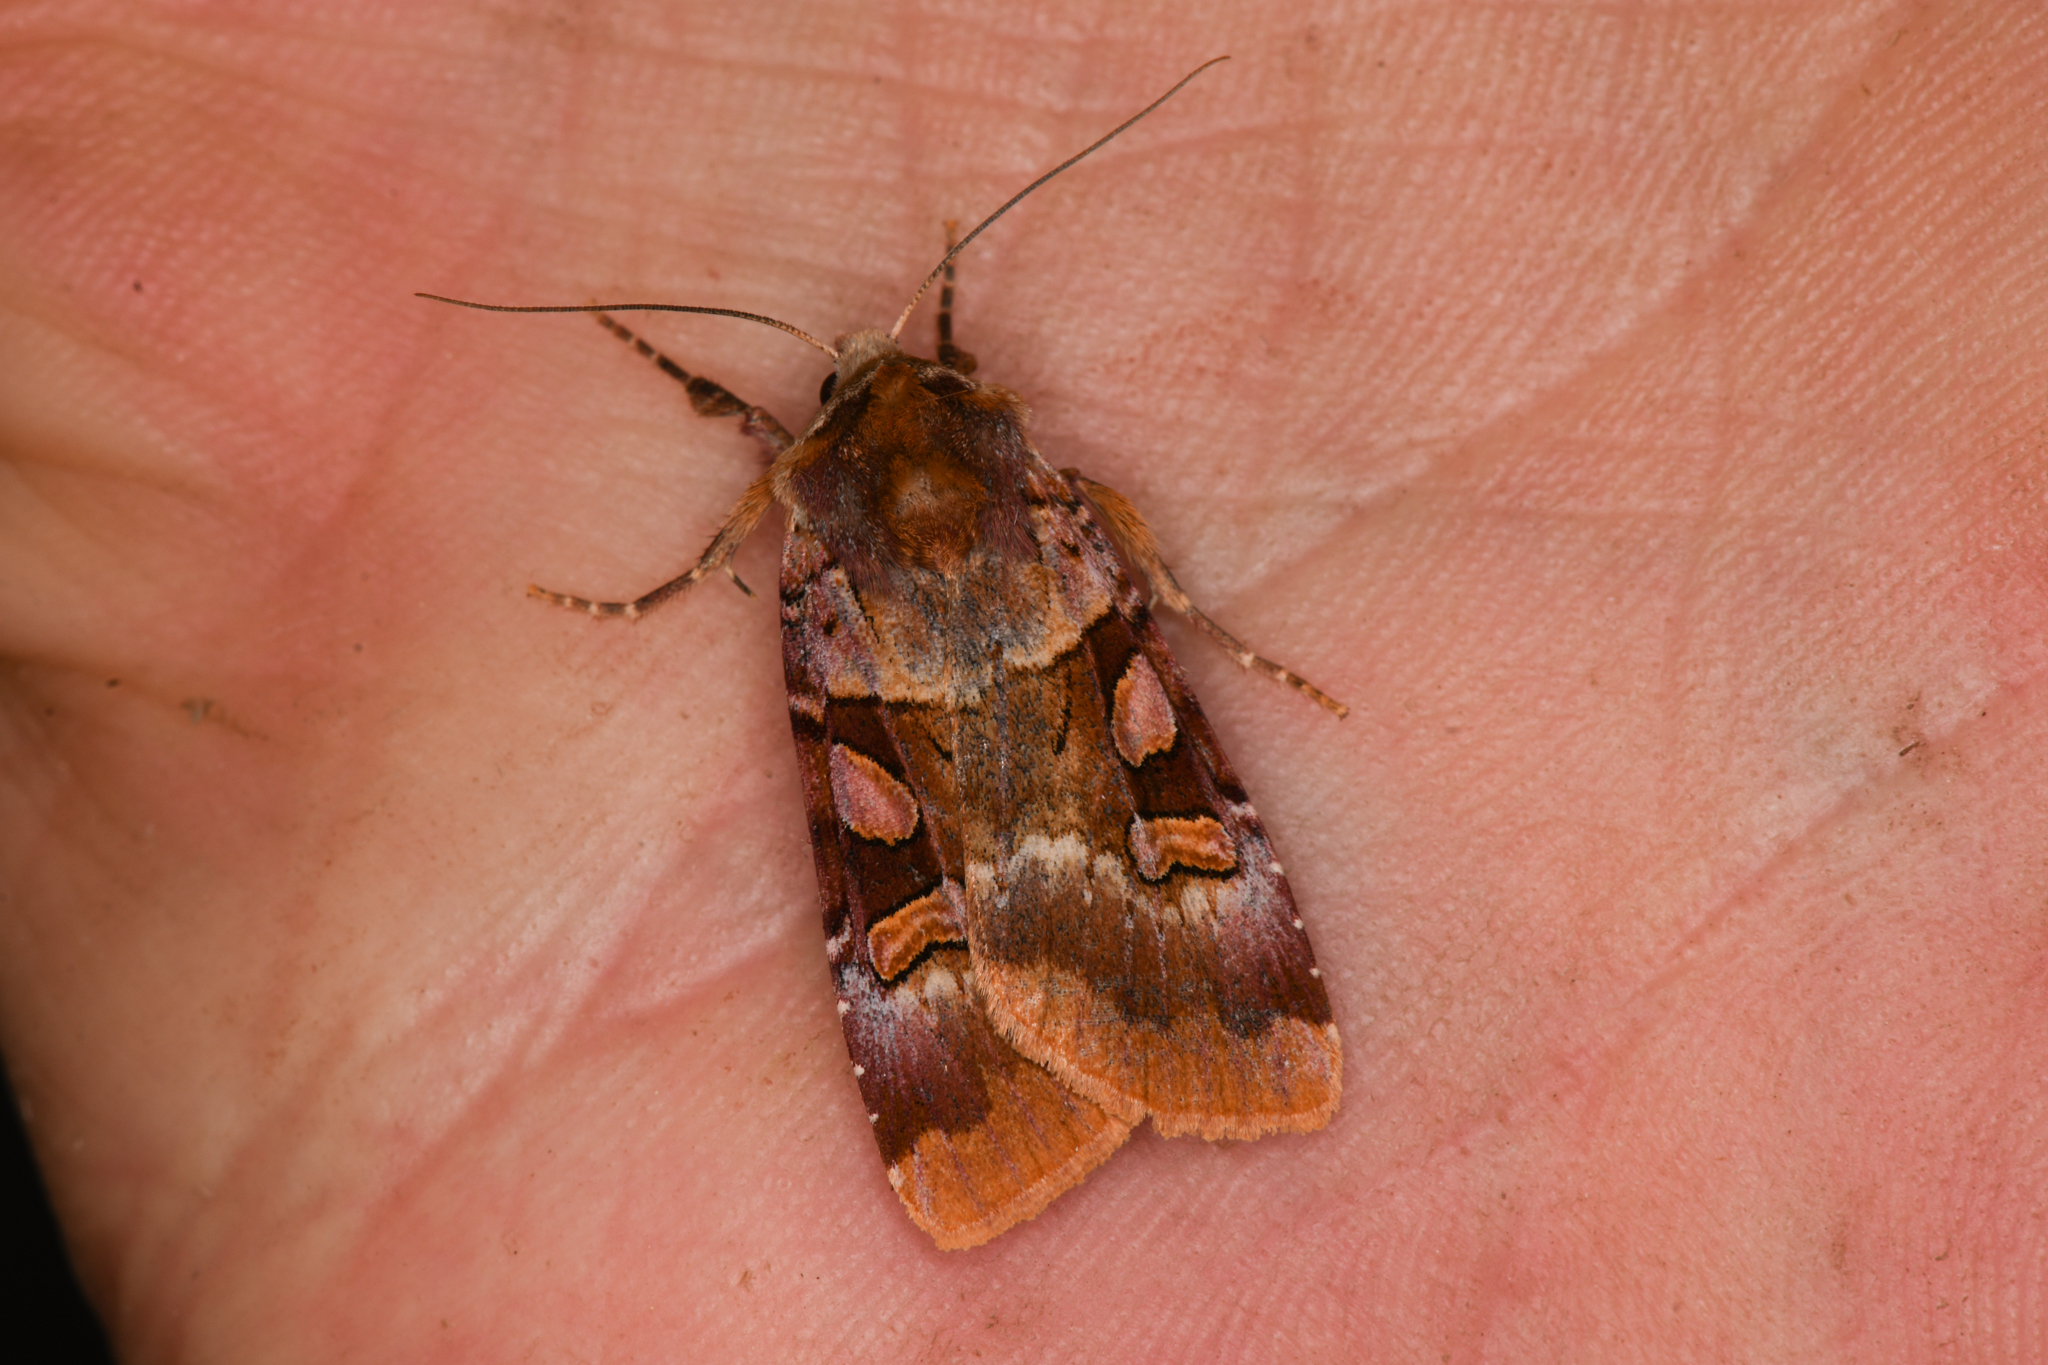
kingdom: Animalia
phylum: Arthropoda
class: Insecta
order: Lepidoptera
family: Noctuidae
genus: Xestia
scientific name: Xestia oblata
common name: Rosy dart
